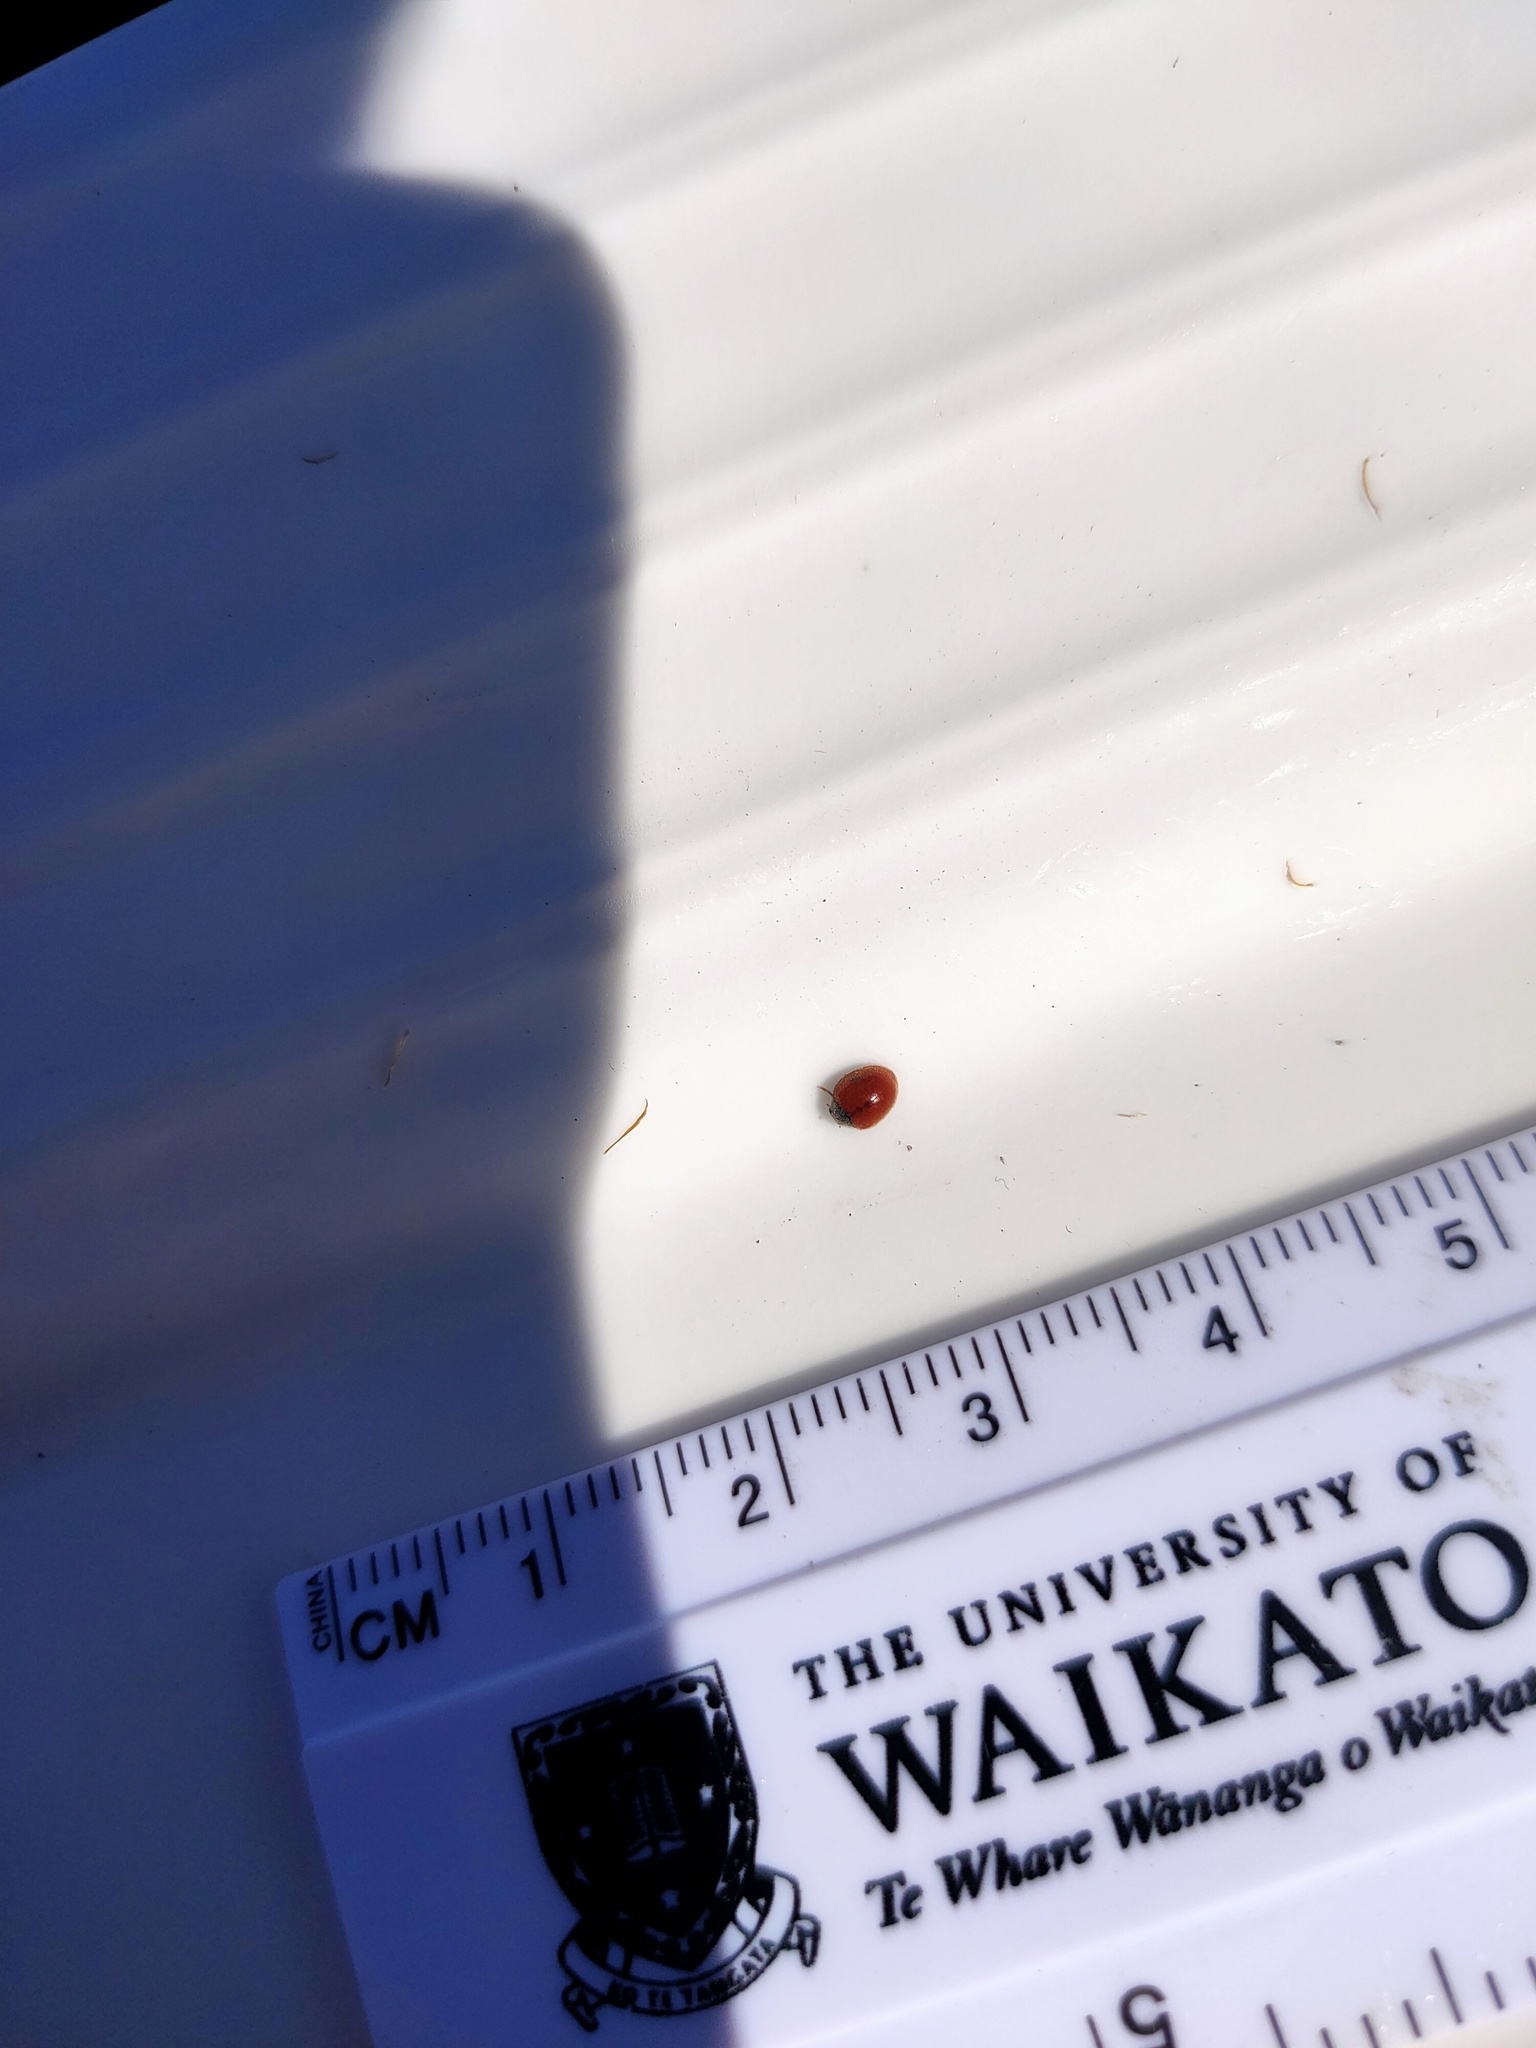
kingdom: Animalia
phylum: Arthropoda
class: Insecta
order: Coleoptera
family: Coccinellidae
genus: Novius
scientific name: Novius koebelei
